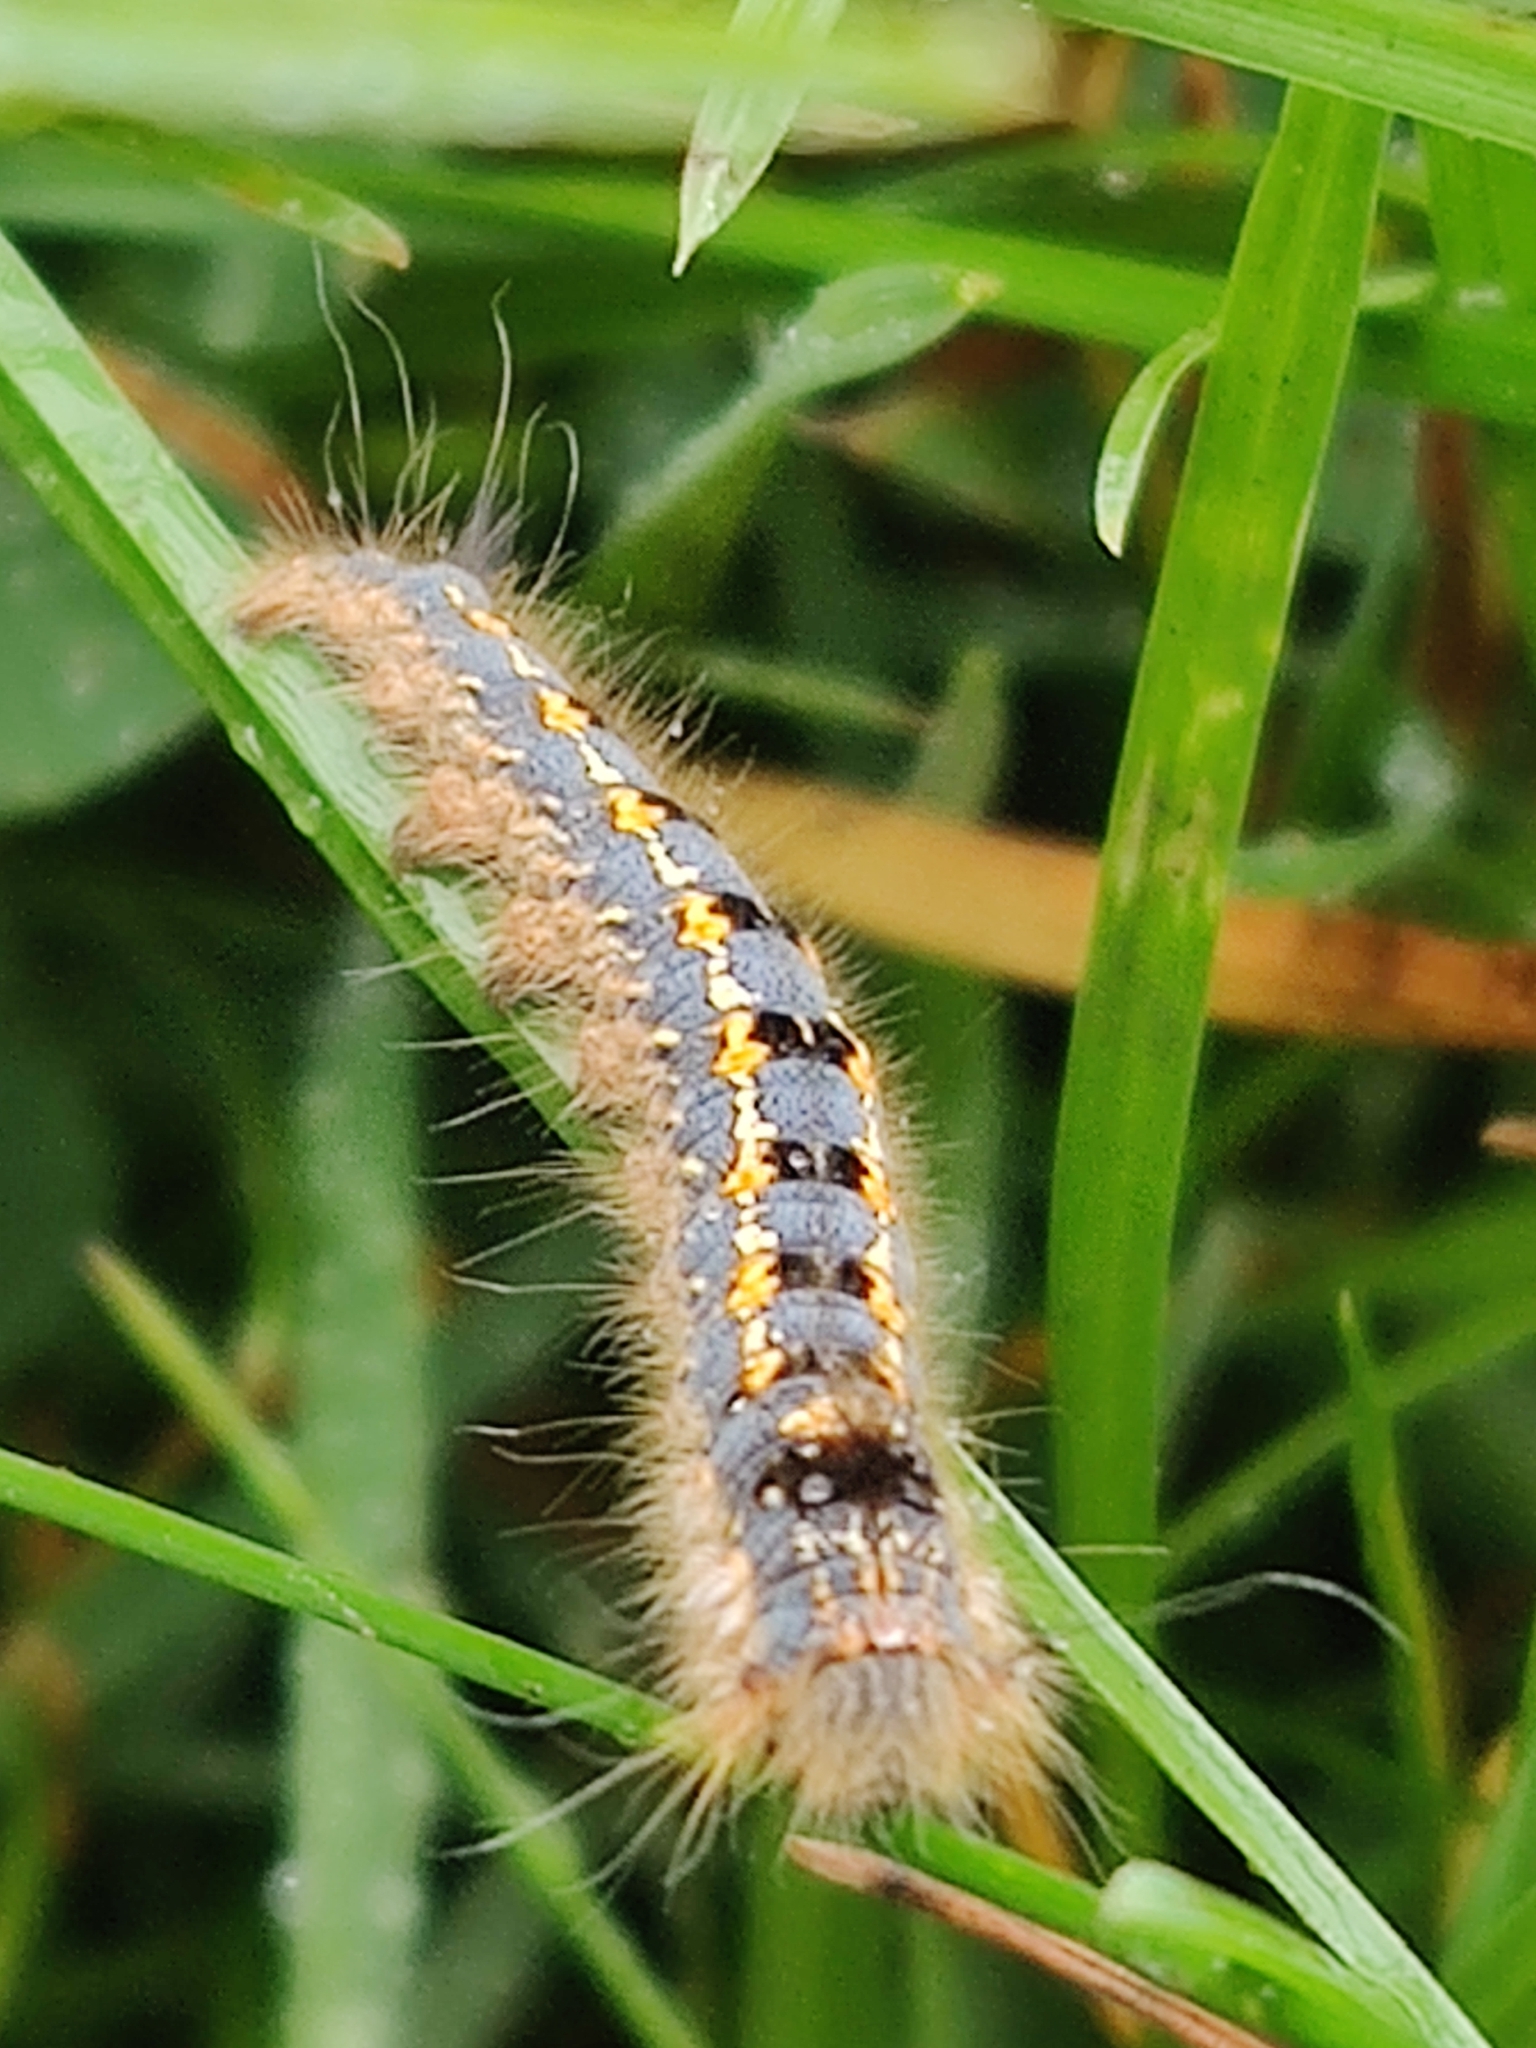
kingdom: Animalia
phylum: Arthropoda
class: Insecta
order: Lepidoptera
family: Lasiocampidae
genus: Euthrix
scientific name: Euthrix potatoria
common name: Drinker
